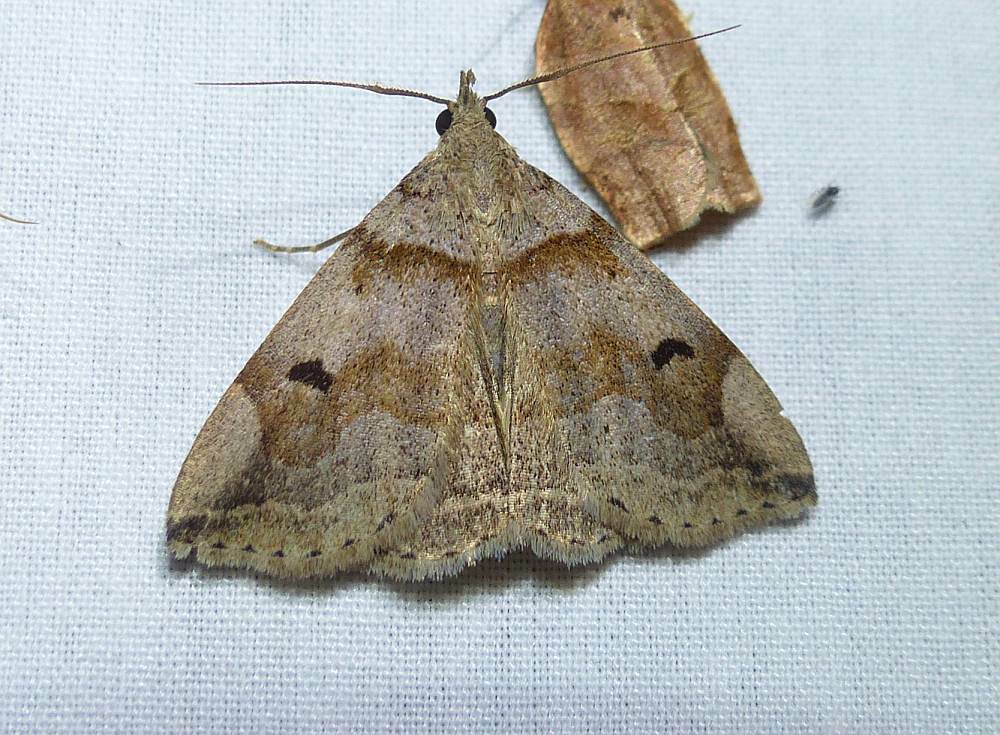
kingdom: Animalia
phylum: Arthropoda
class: Insecta
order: Lepidoptera
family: Erebidae
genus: Zanclognatha
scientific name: Zanclognatha laevigata
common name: Variable fan-foot
